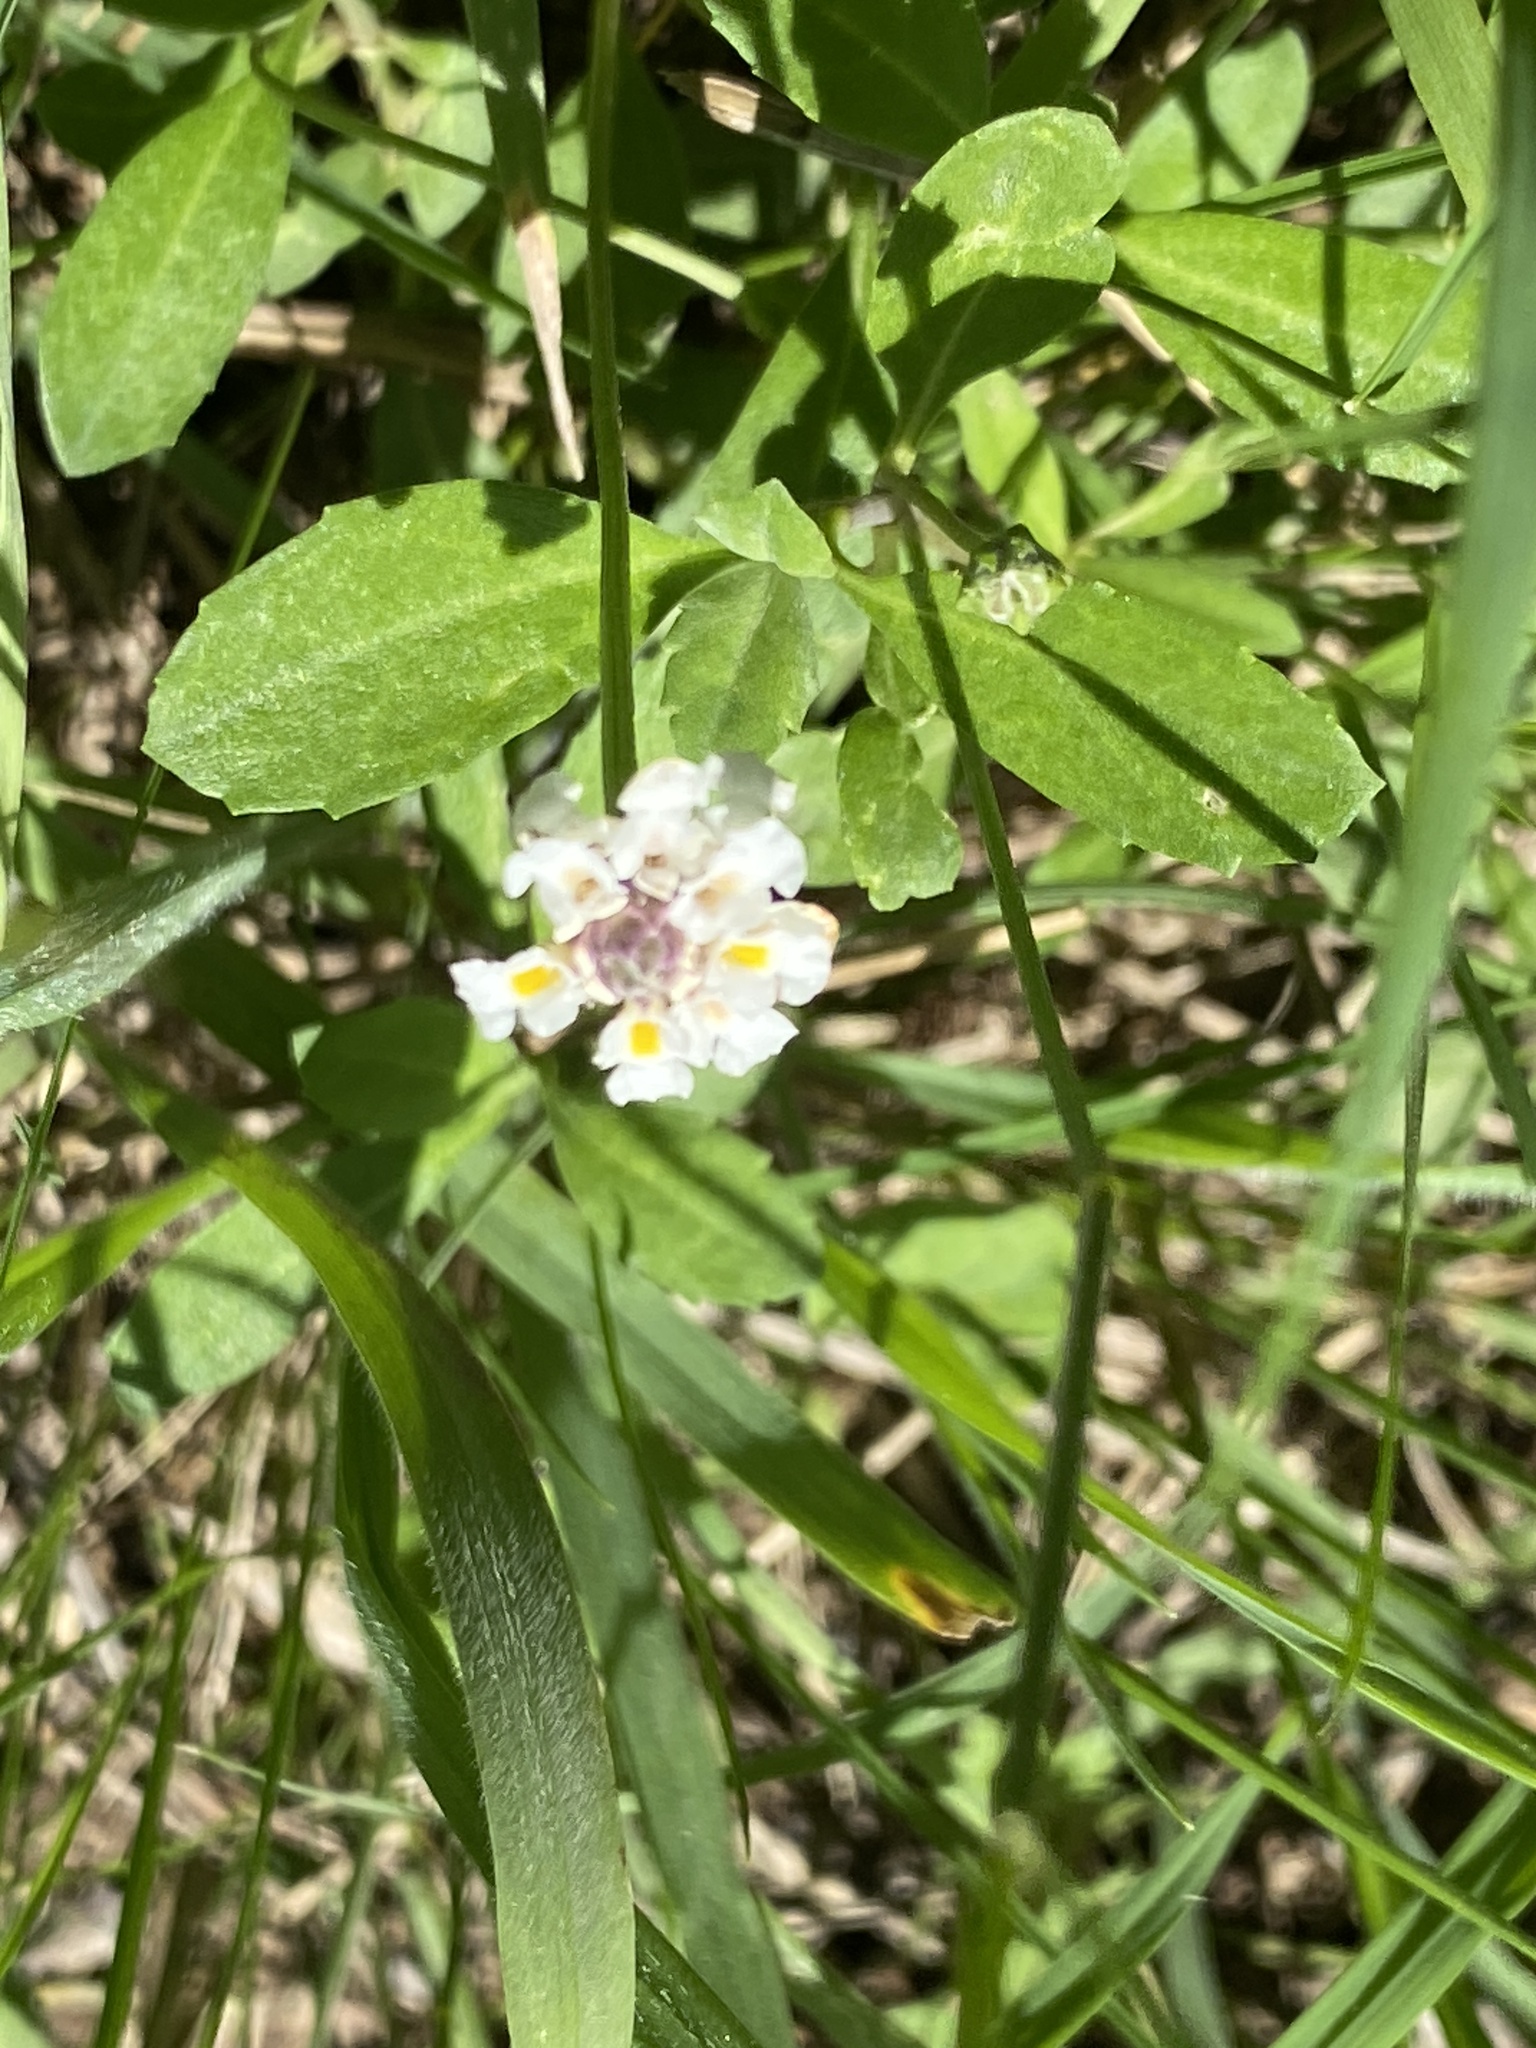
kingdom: Plantae
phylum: Tracheophyta
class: Magnoliopsida
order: Lamiales
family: Verbenaceae
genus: Phyla
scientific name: Phyla nodiflora
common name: Frogfruit
